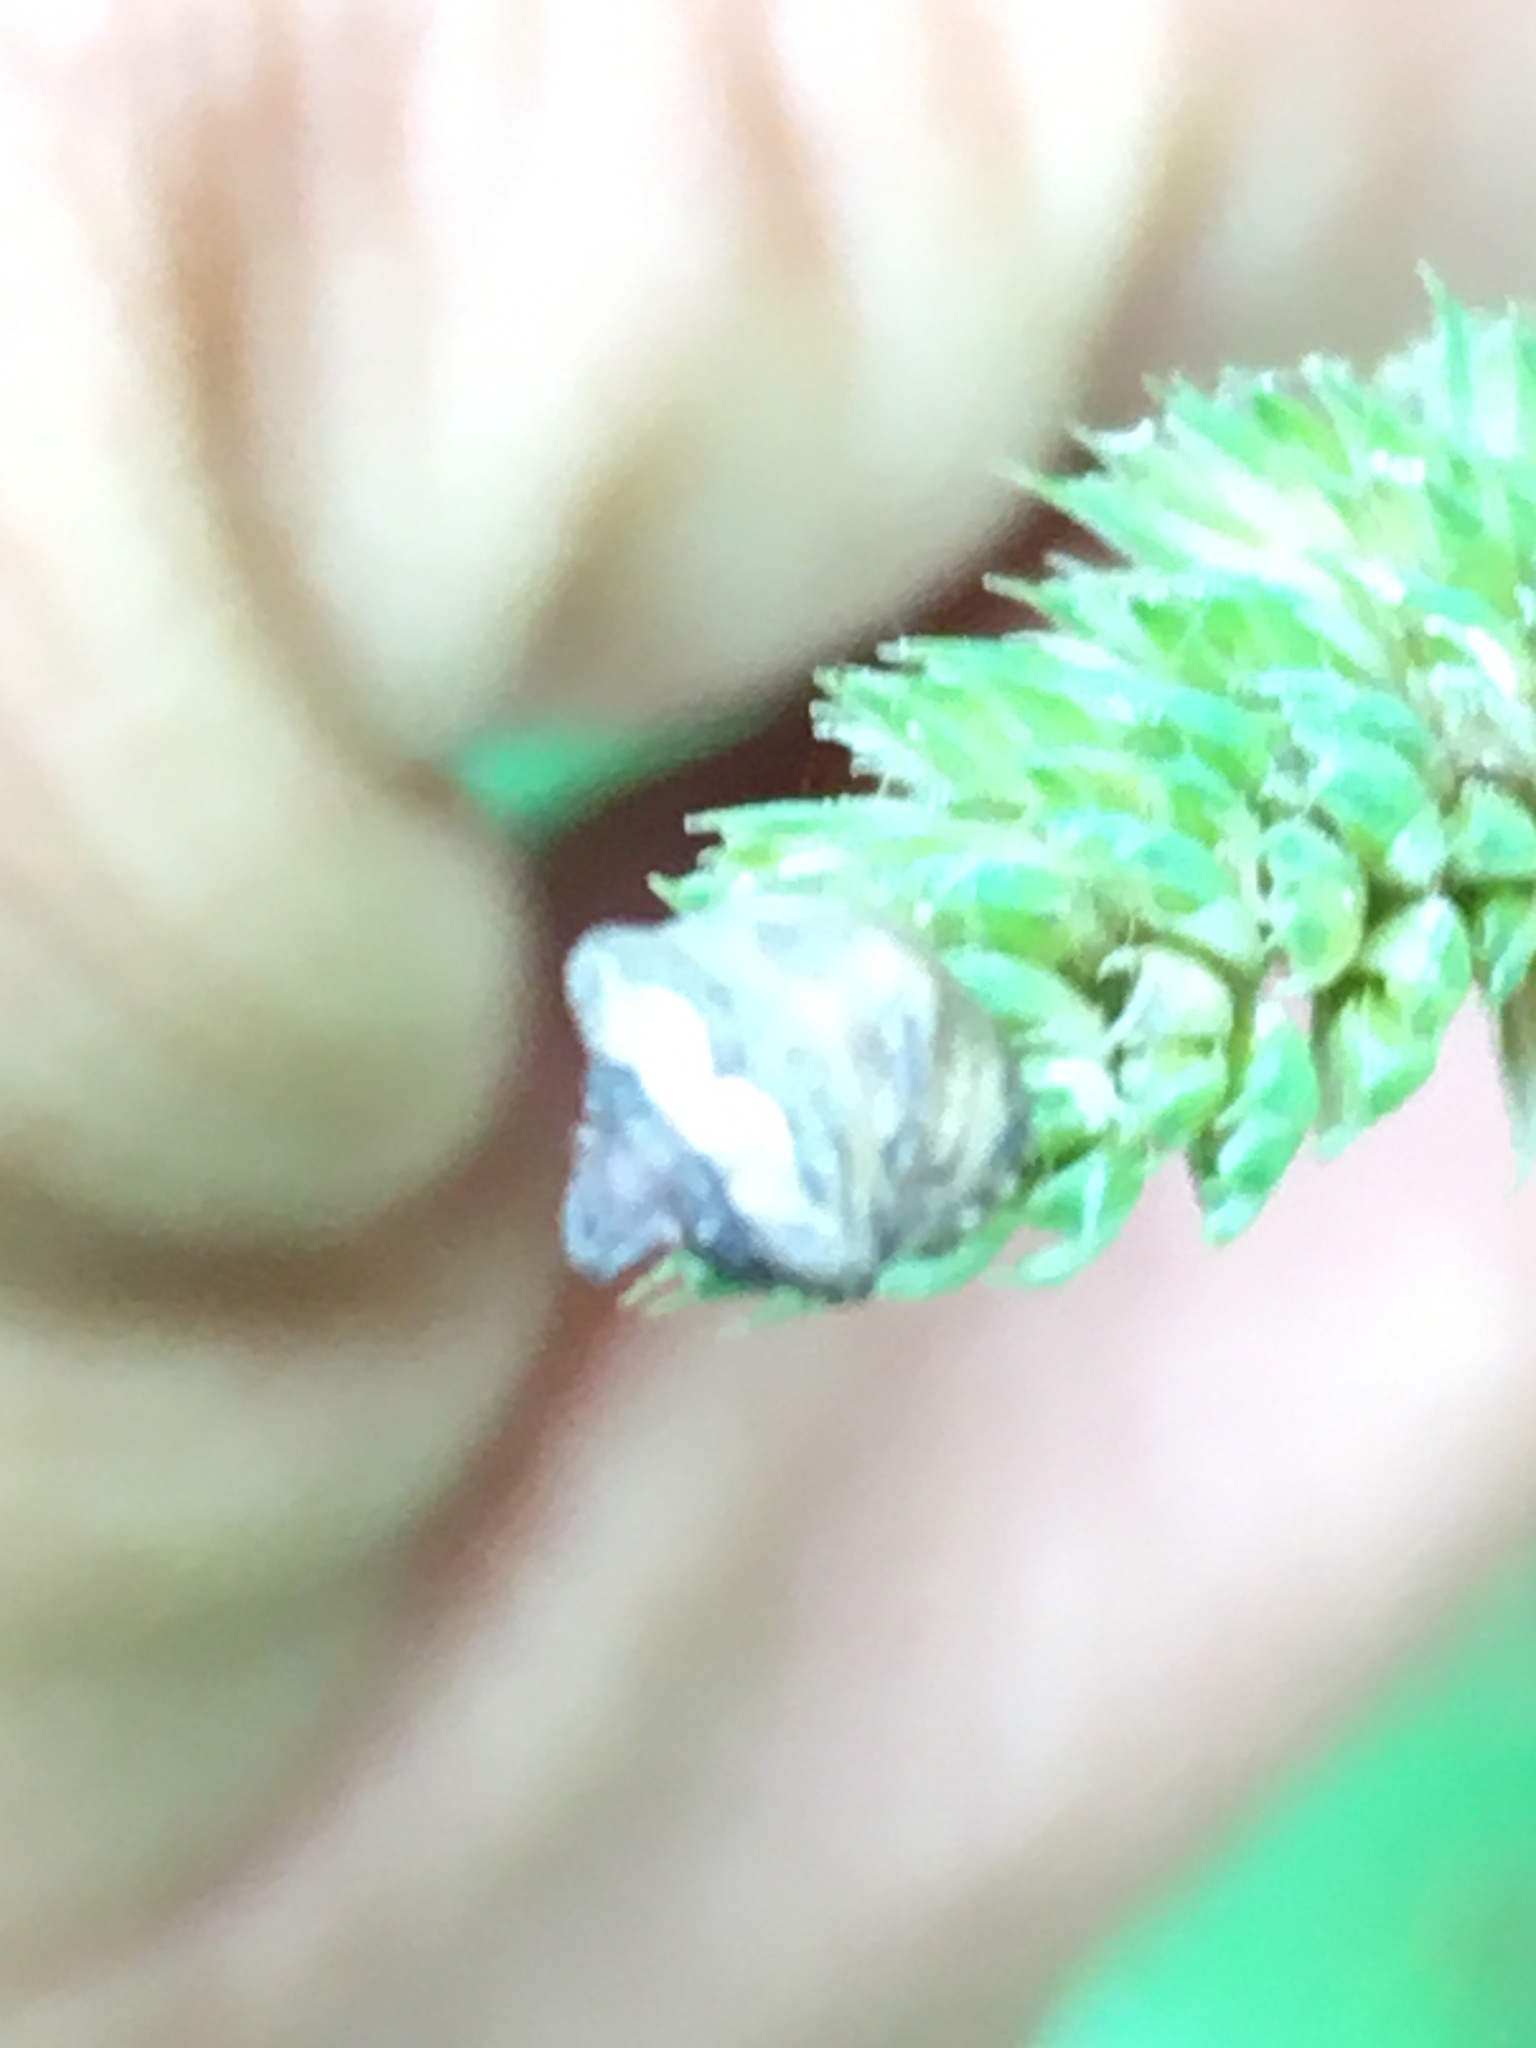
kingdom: Animalia
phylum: Arthropoda
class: Insecta
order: Hemiptera
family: Pentatomidae
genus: Vilpianus
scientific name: Vilpianus galii
